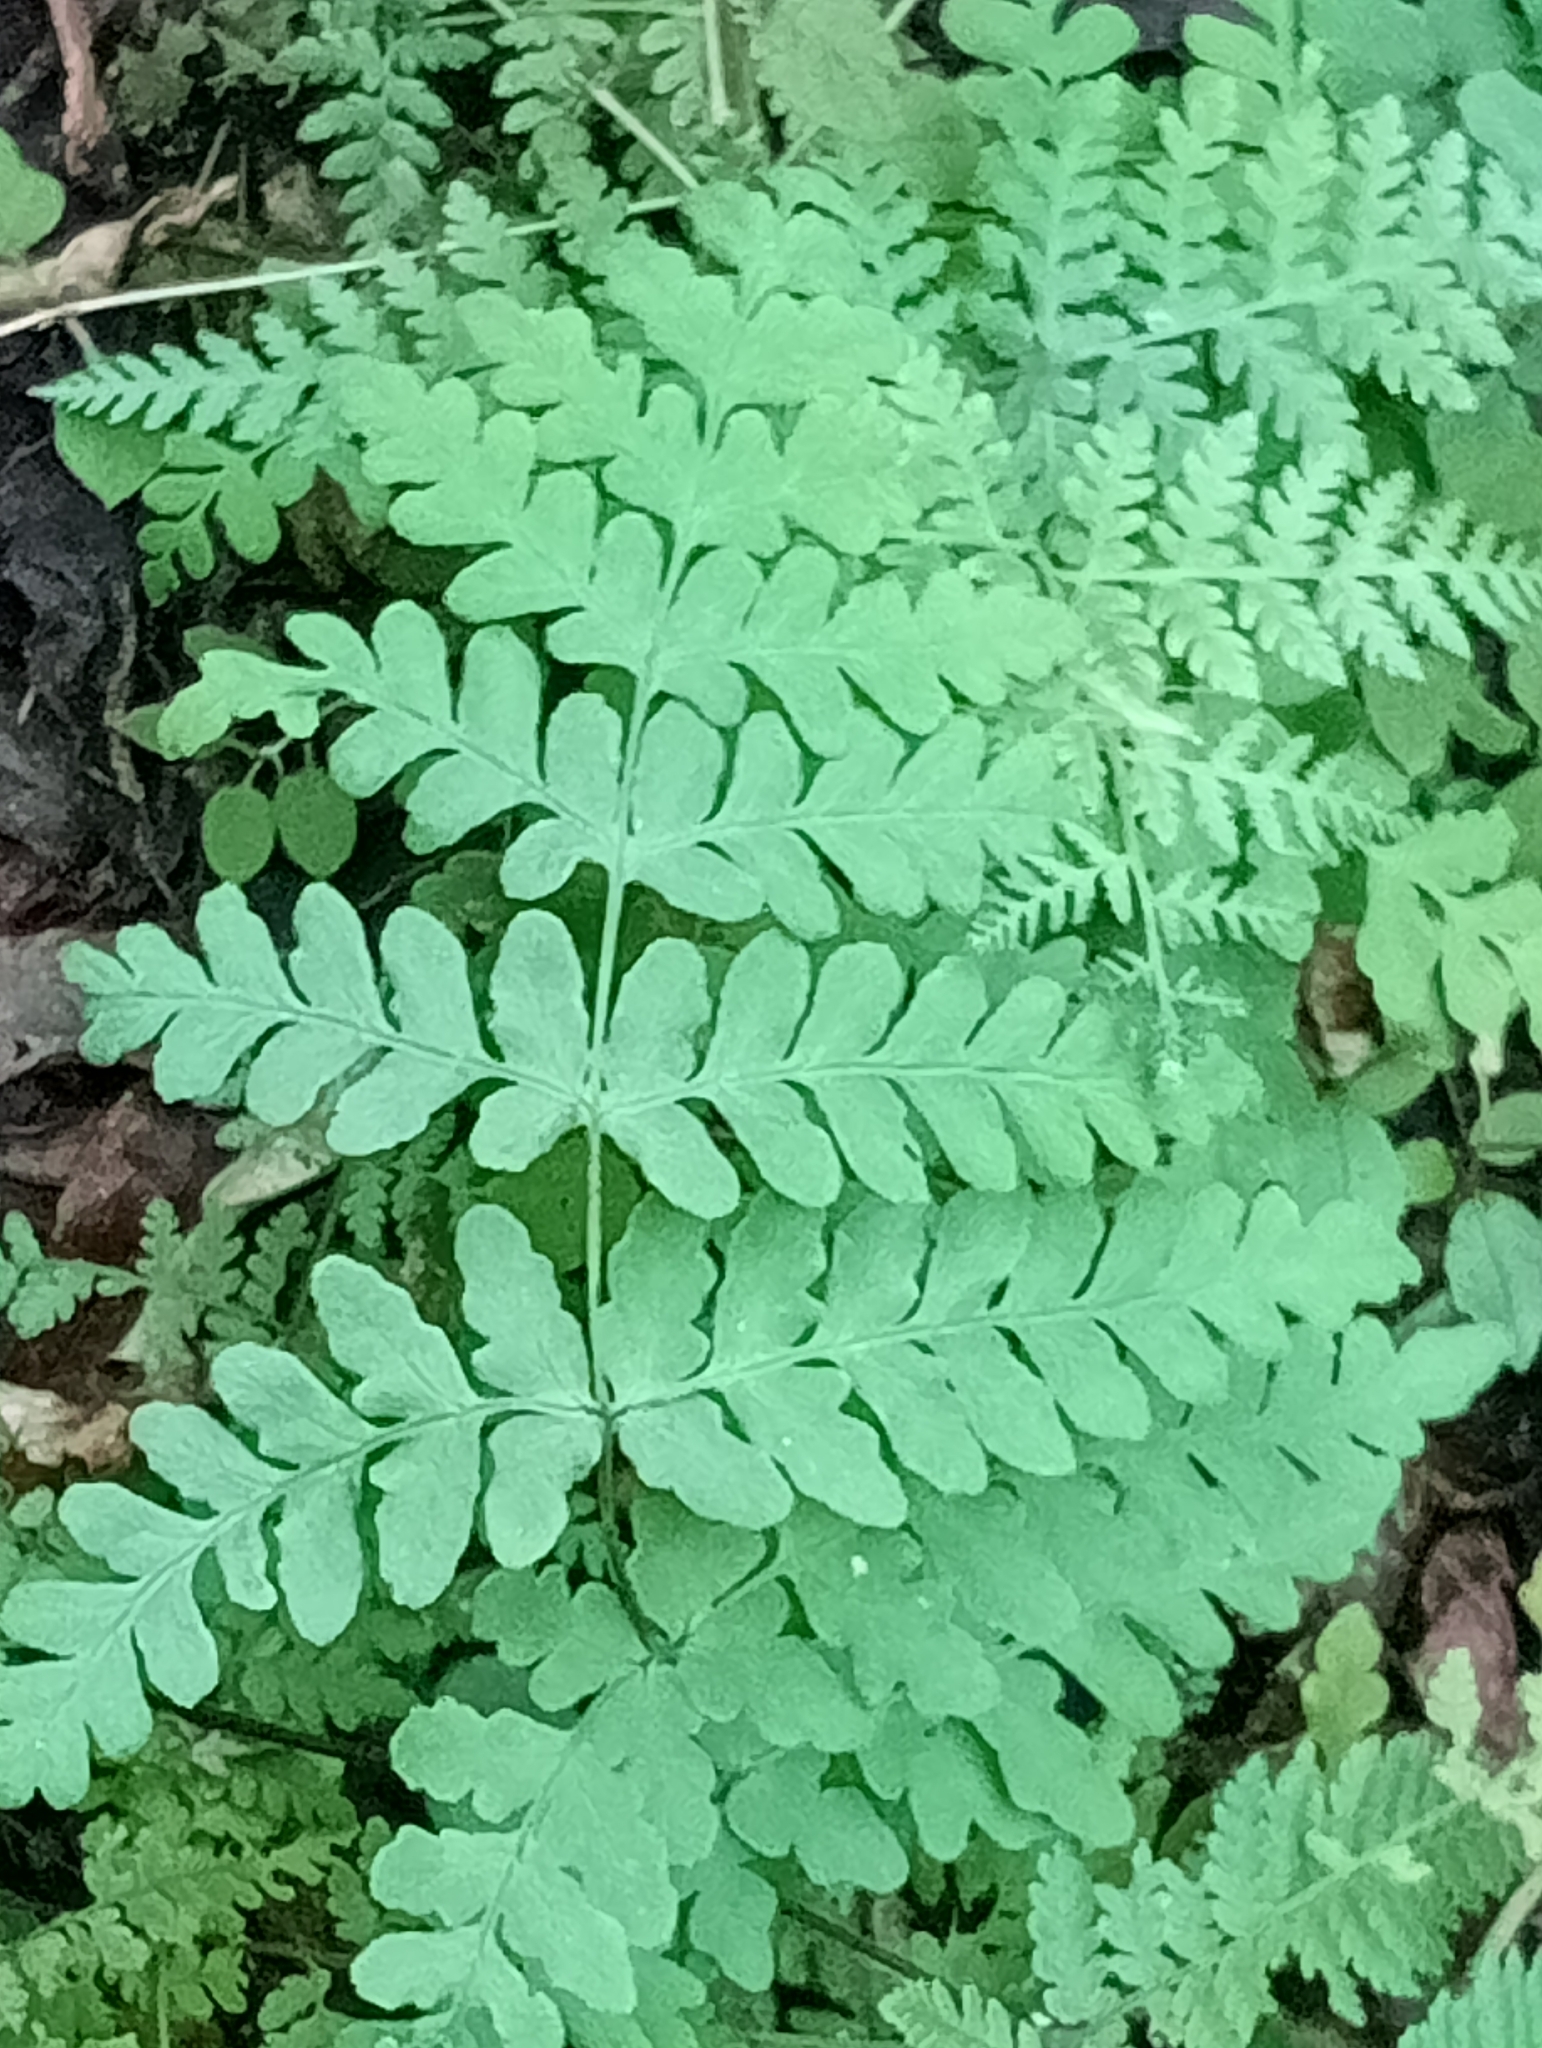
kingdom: Plantae
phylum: Tracheophyta
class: Polypodiopsida
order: Polypodiales
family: Dennstaedtiaceae
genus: Histiopteris
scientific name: Histiopteris incisa
